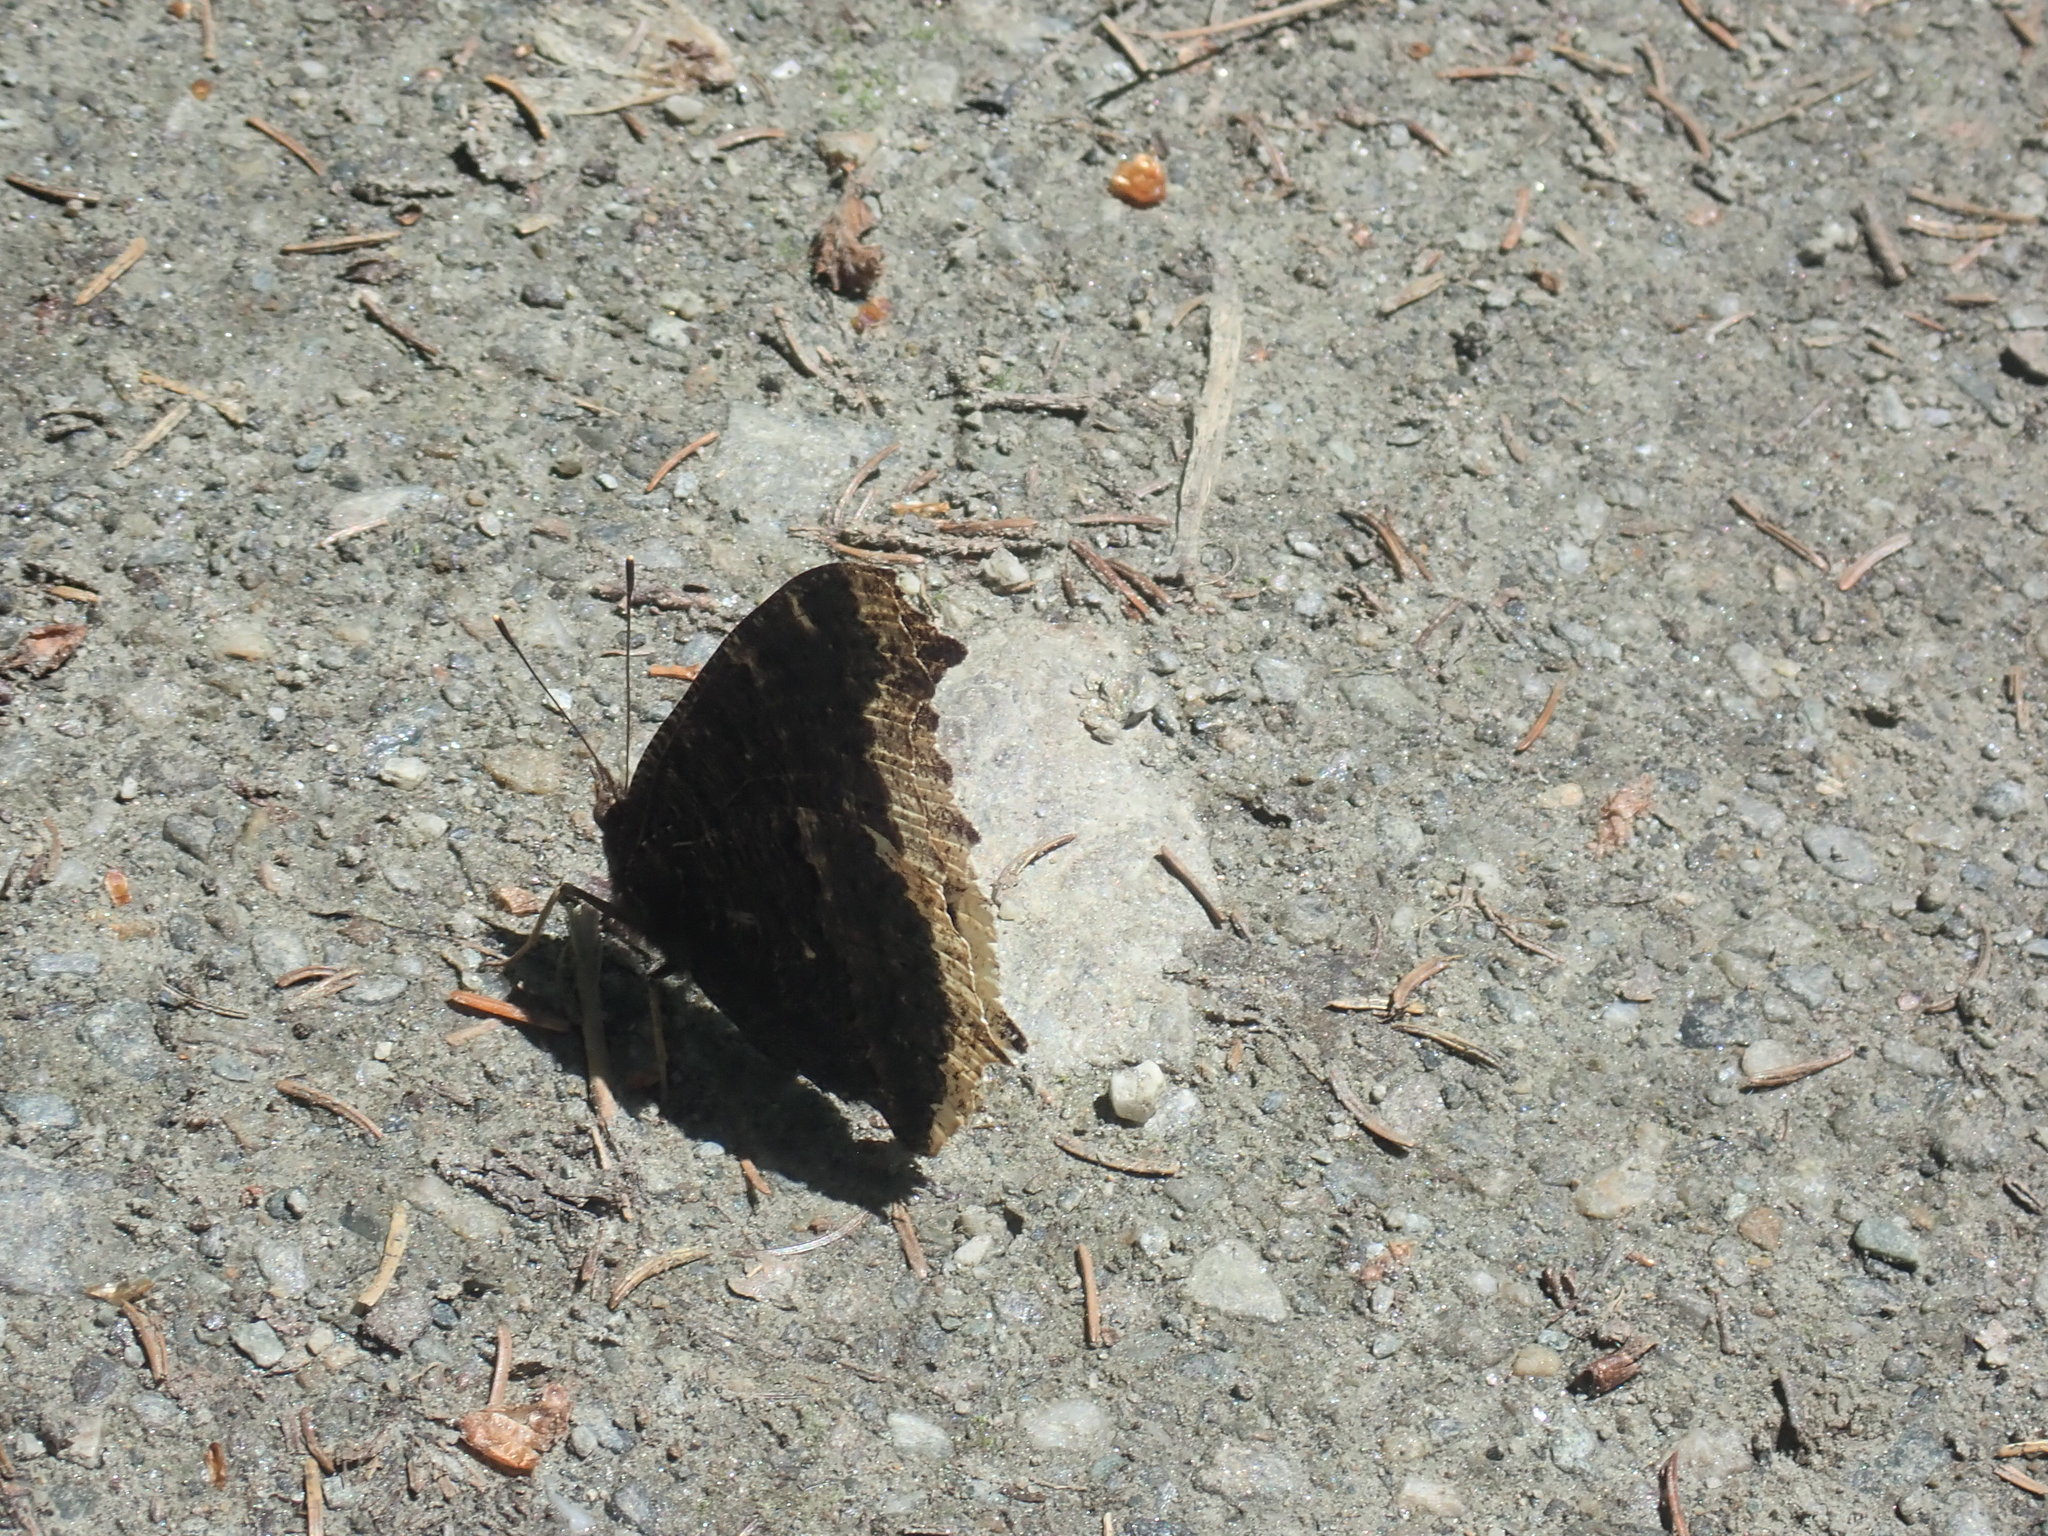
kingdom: Animalia
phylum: Arthropoda
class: Insecta
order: Lepidoptera
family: Nymphalidae
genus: Nymphalis
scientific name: Nymphalis antiopa
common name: Camberwell beauty
